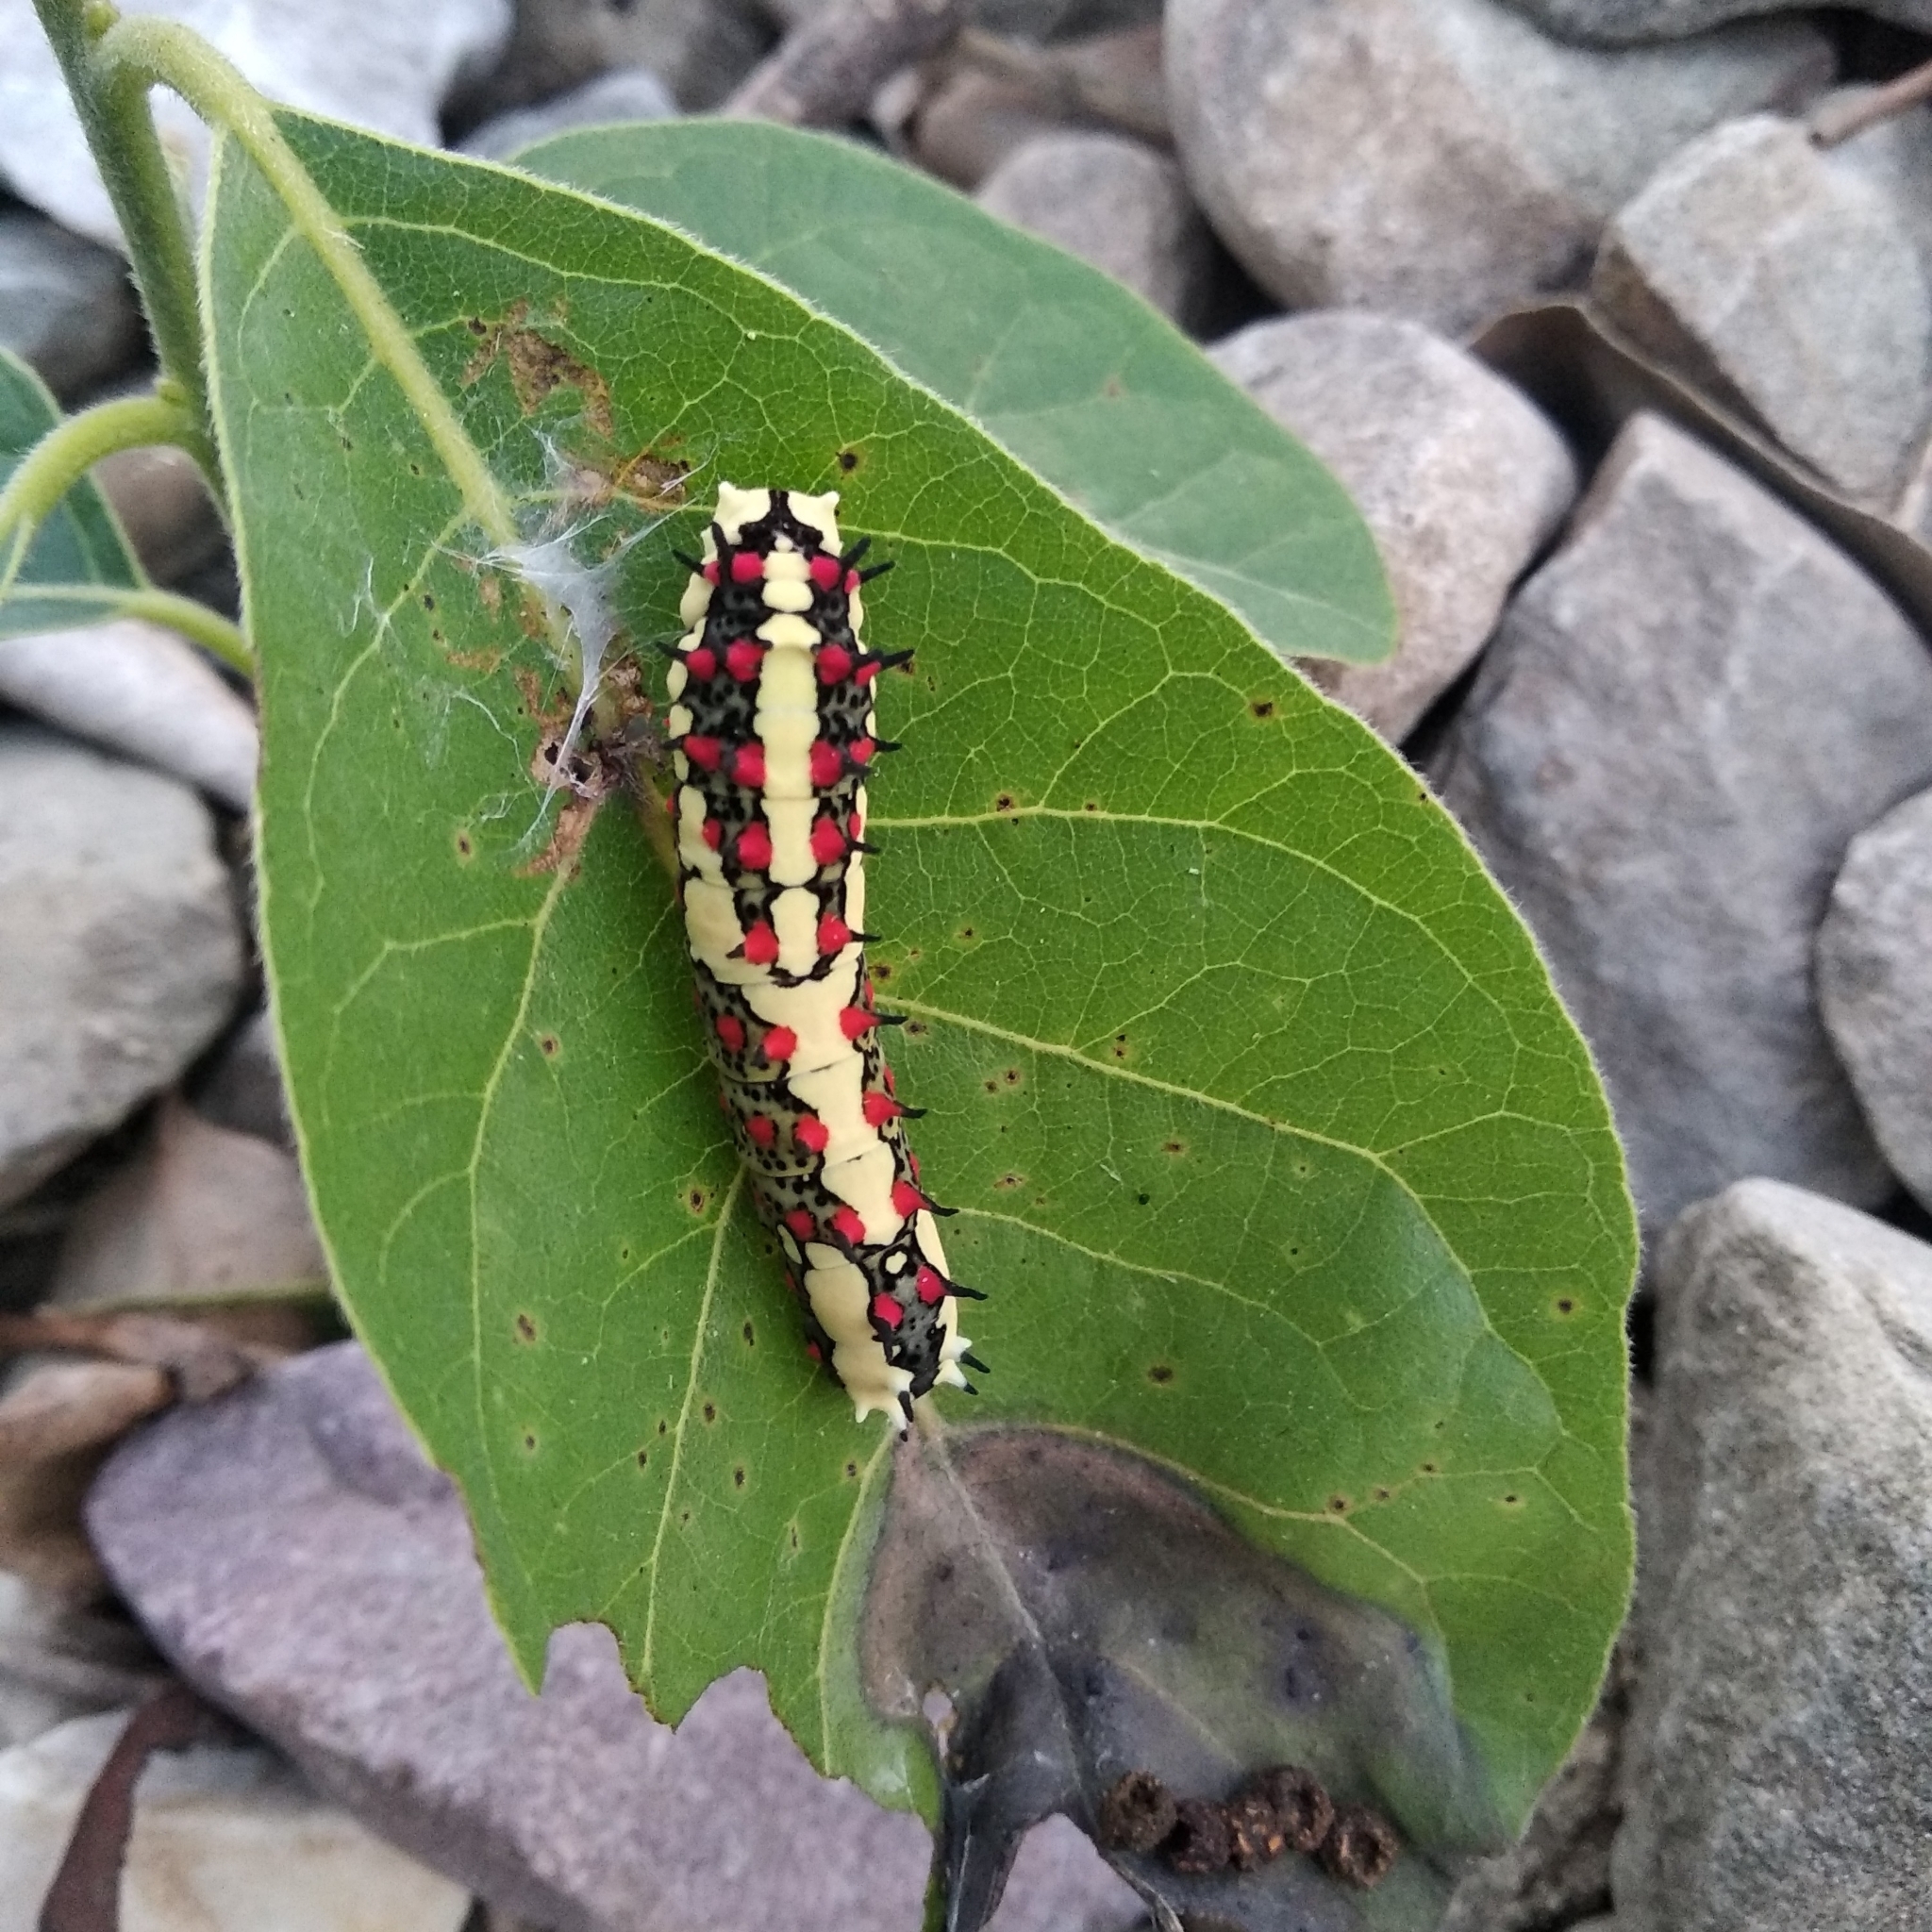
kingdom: Animalia
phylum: Arthropoda
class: Insecta
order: Lepidoptera
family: Papilionidae
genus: Chilasa
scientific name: Chilasa clytia
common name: Common mime
